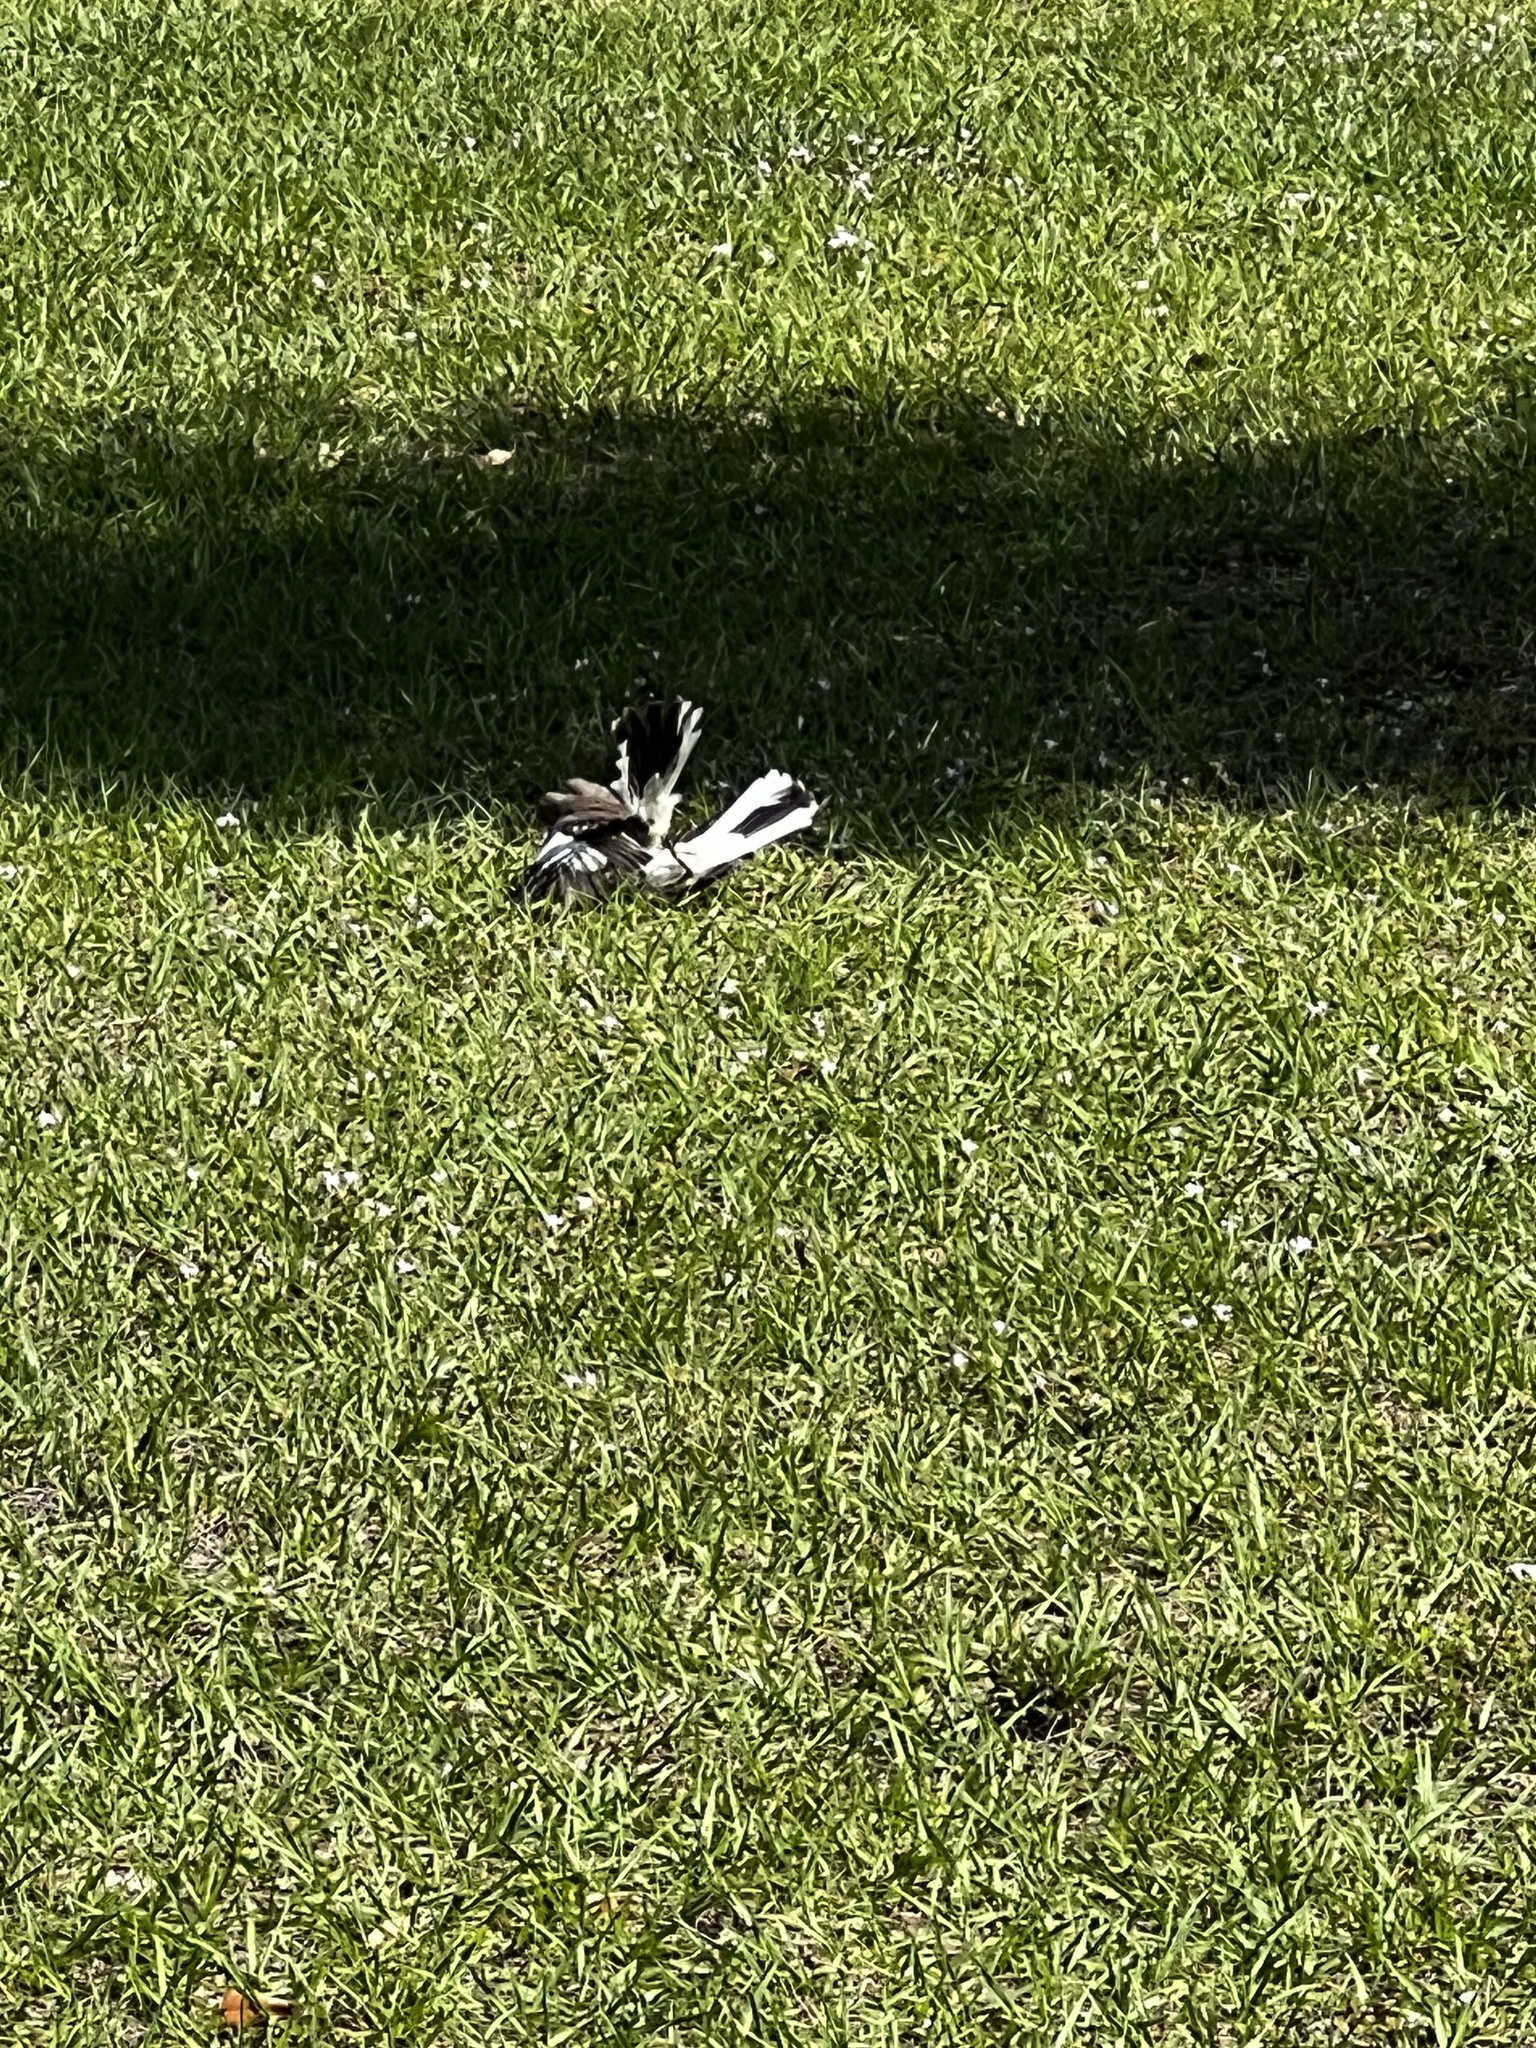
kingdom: Animalia
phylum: Chordata
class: Aves
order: Passeriformes
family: Mimidae
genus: Mimus
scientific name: Mimus polyglottos
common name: Northern mockingbird
